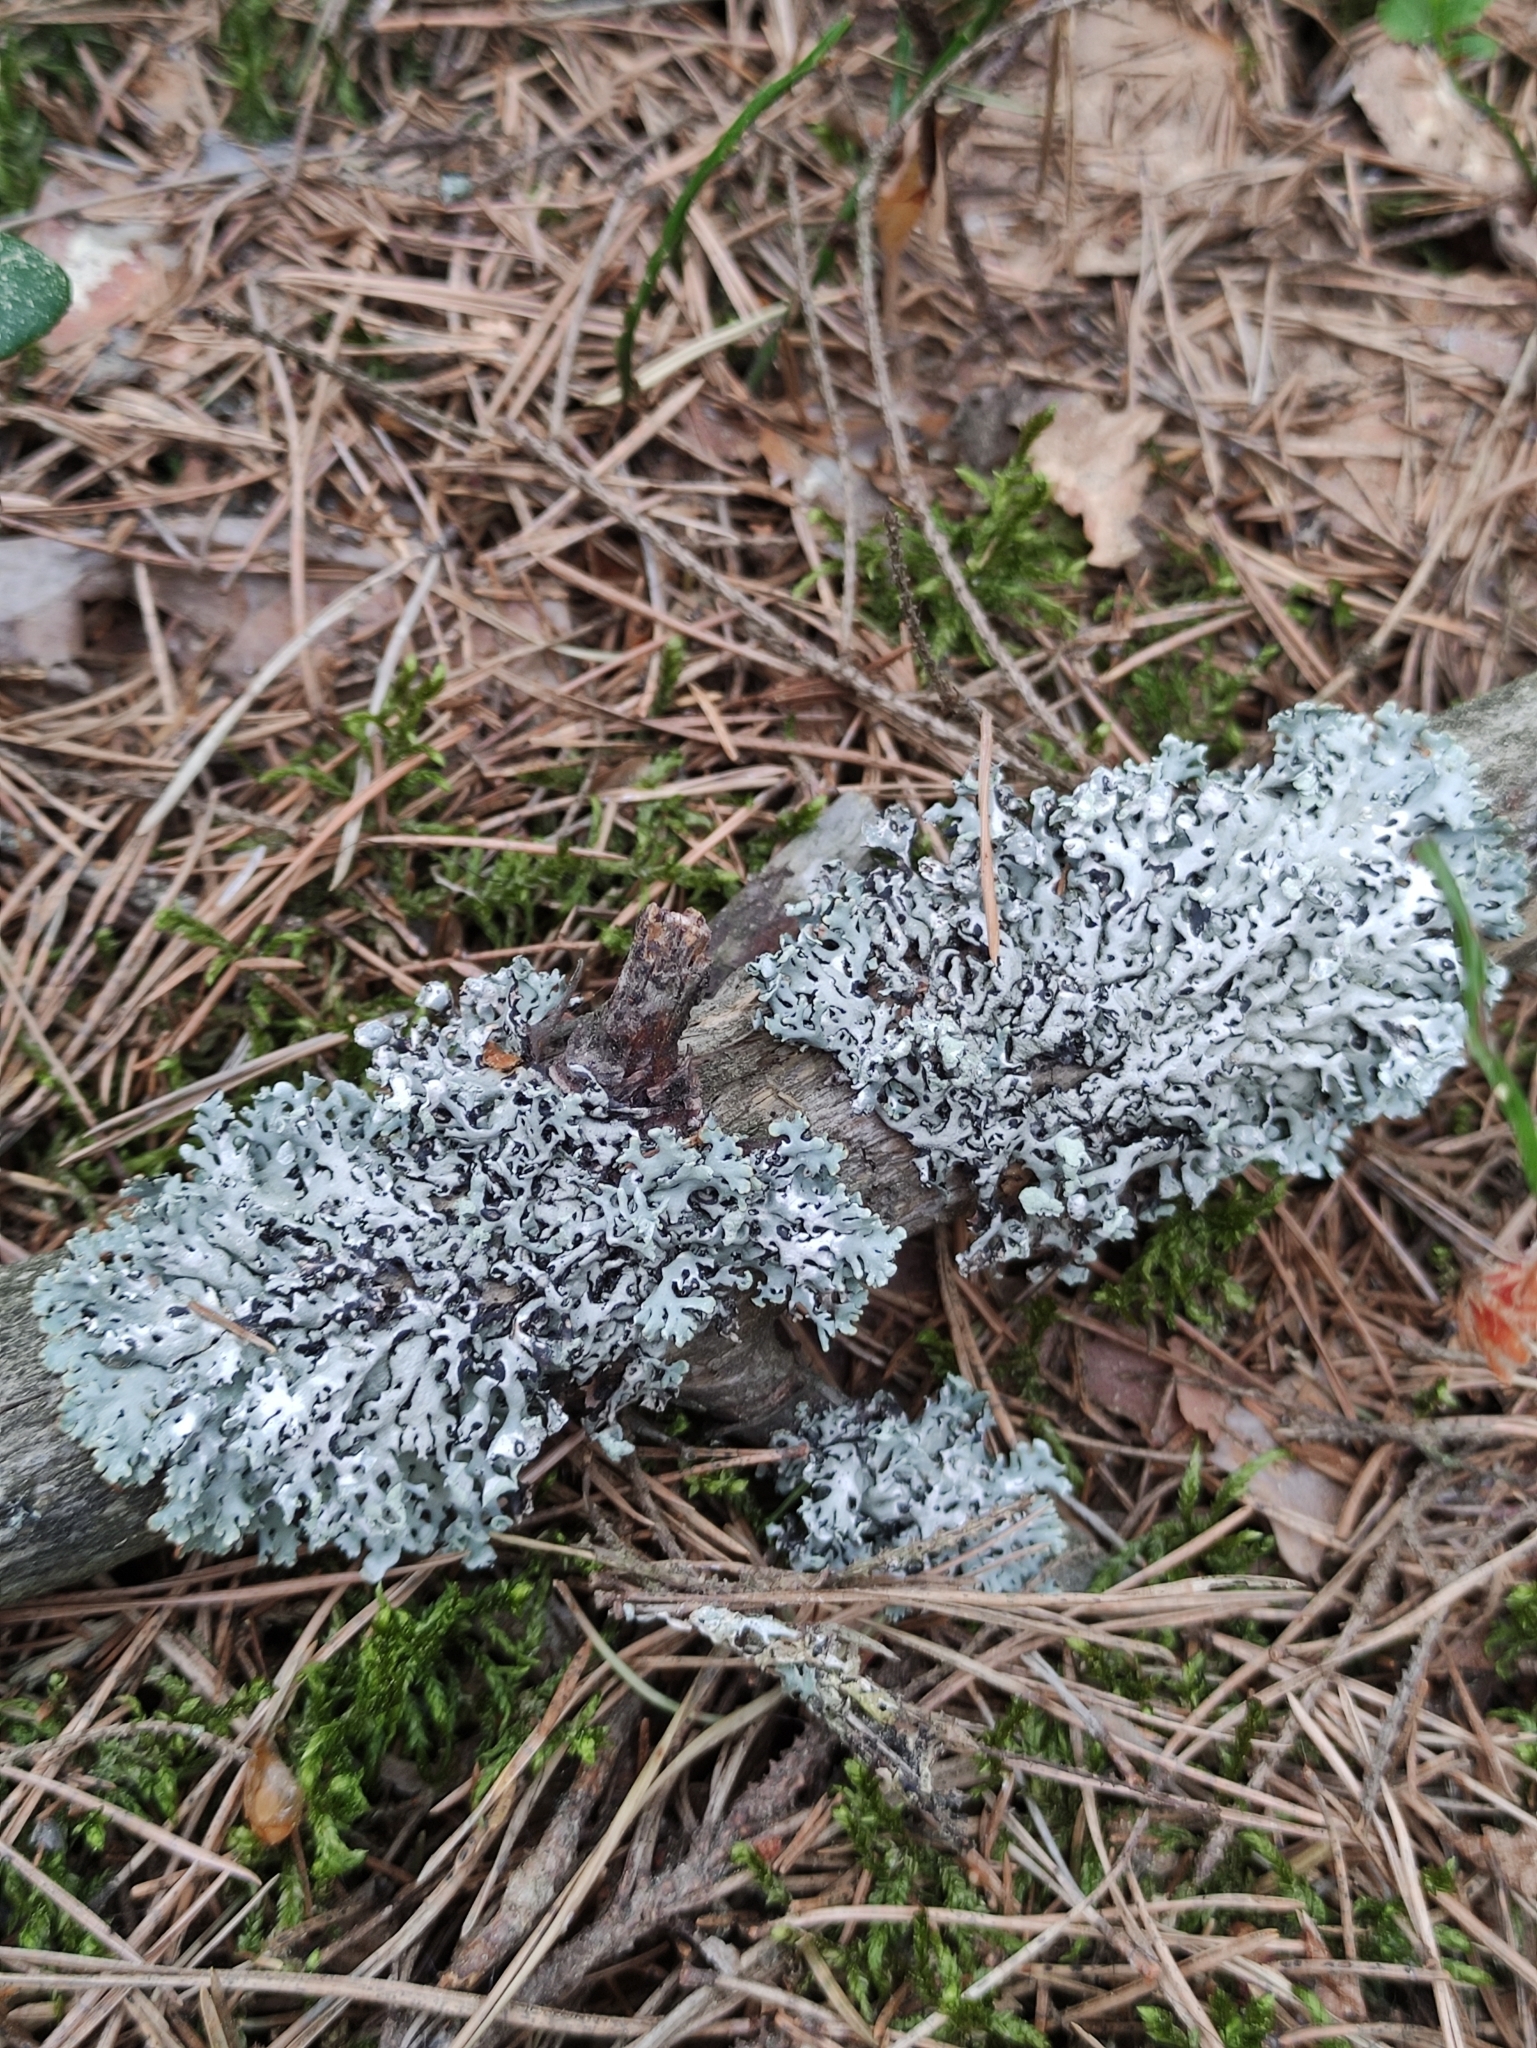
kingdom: Fungi
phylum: Ascomycota
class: Lecanoromycetes
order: Lecanorales
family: Parmeliaceae
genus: Hypogymnia
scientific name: Hypogymnia physodes
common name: Dark crottle
